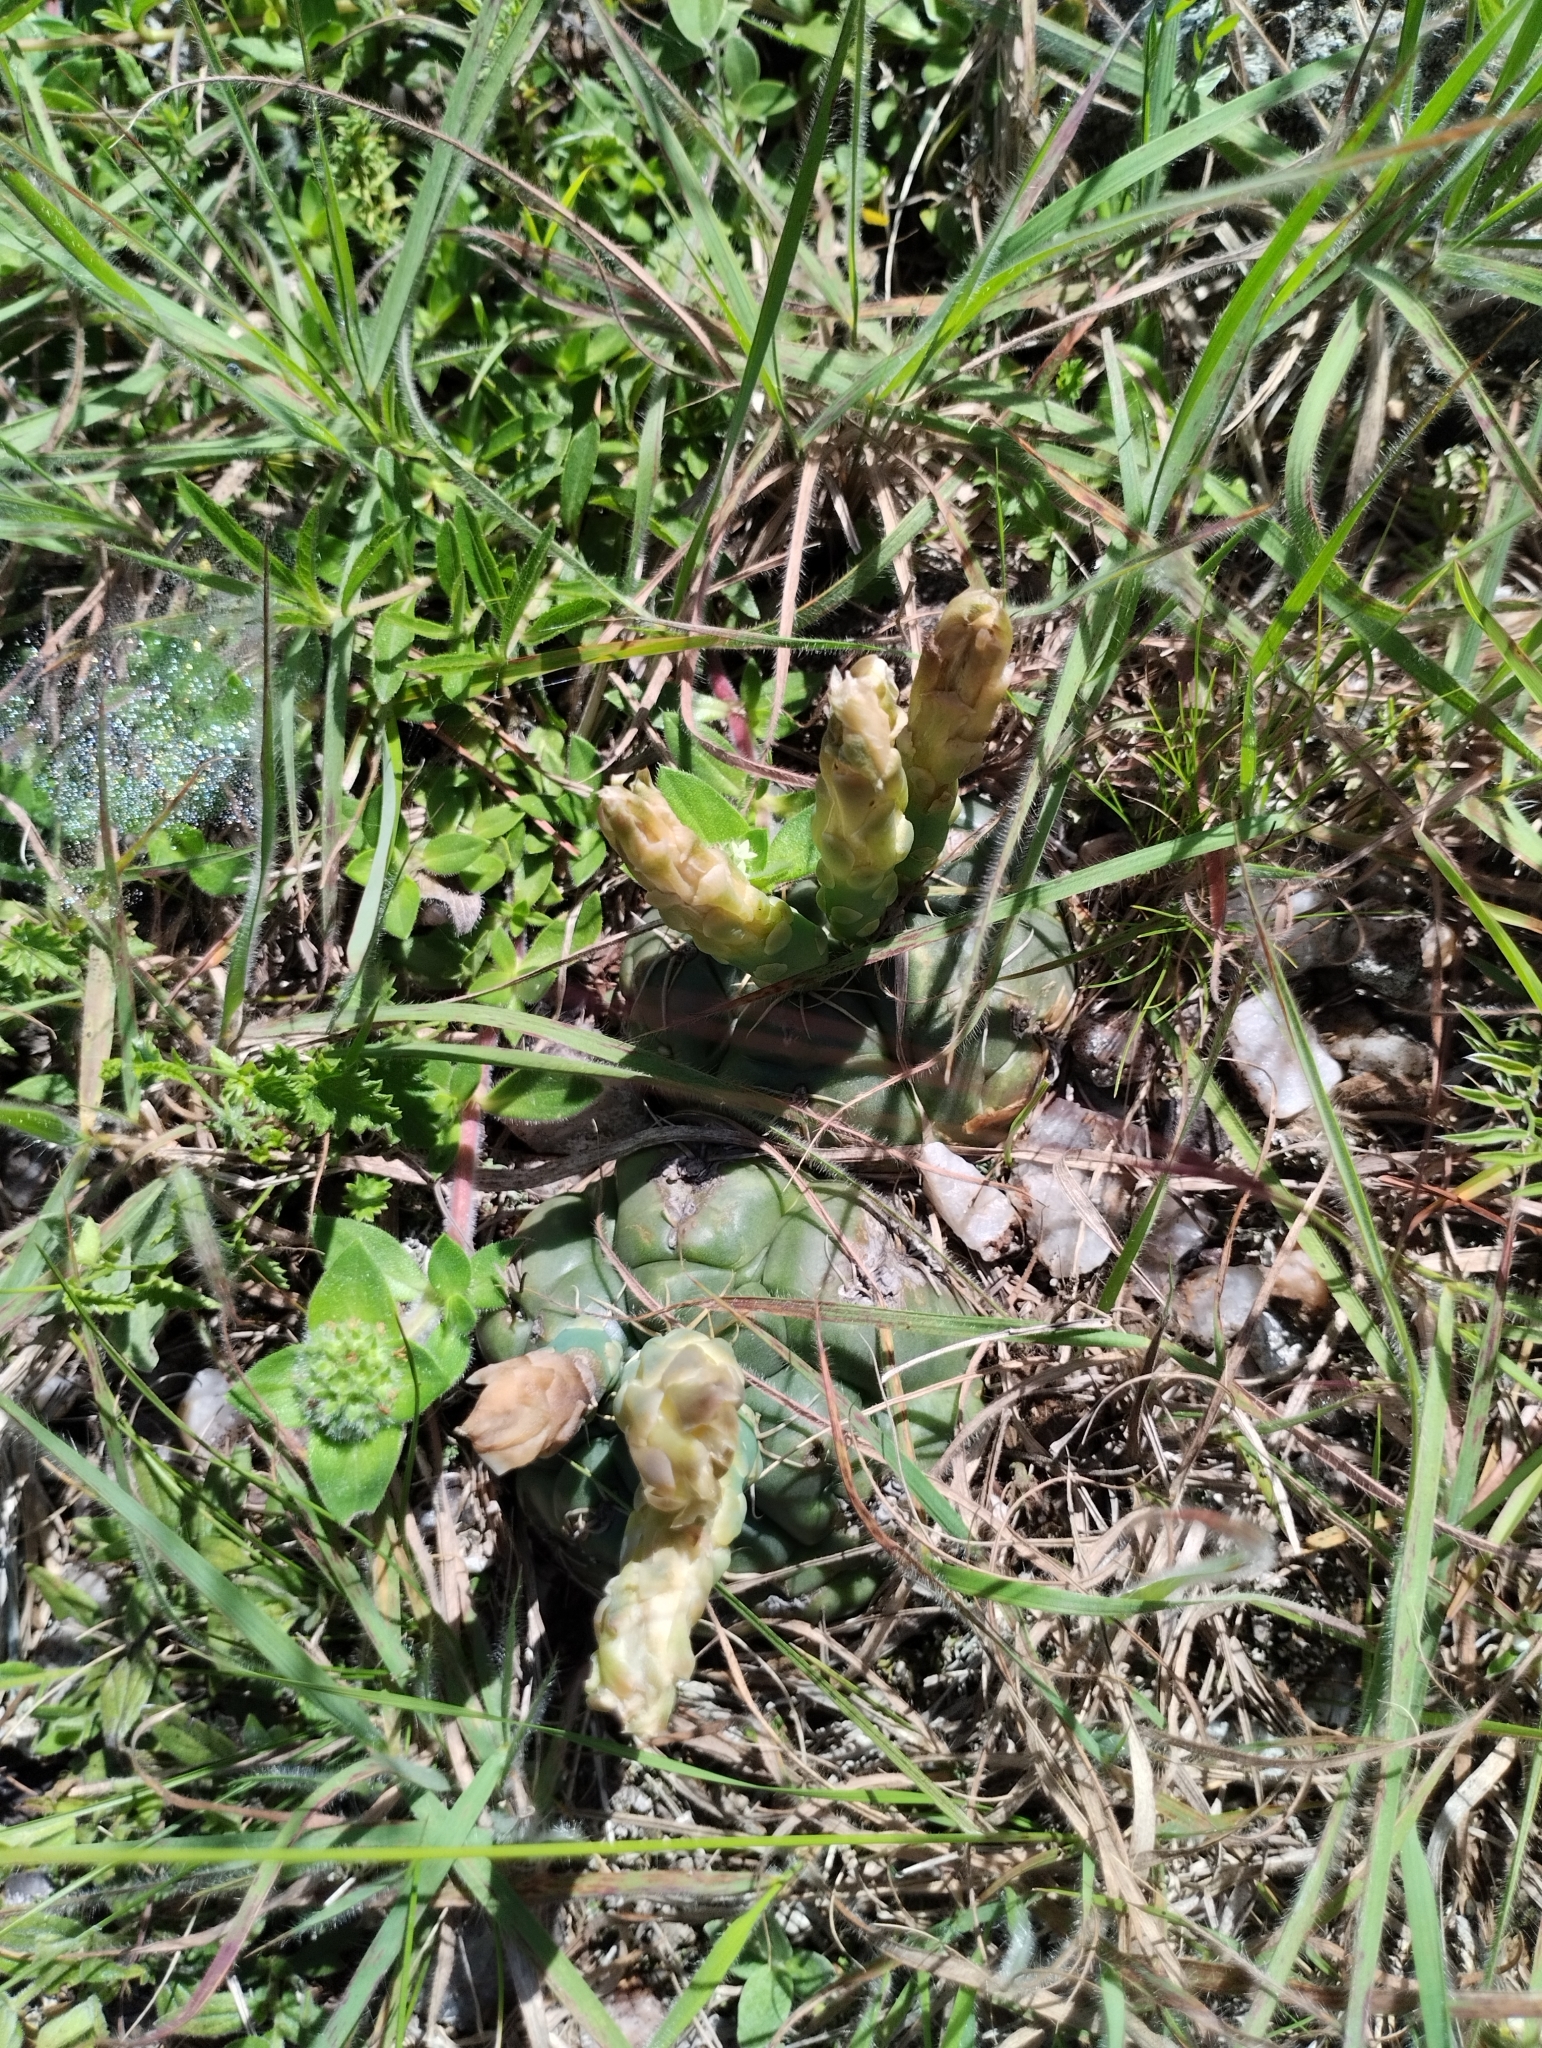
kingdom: Plantae
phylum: Tracheophyta
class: Magnoliopsida
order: Caryophyllales
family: Cactaceae
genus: Gymnocalycium
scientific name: Gymnocalycium denudatum
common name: Spider cactus
